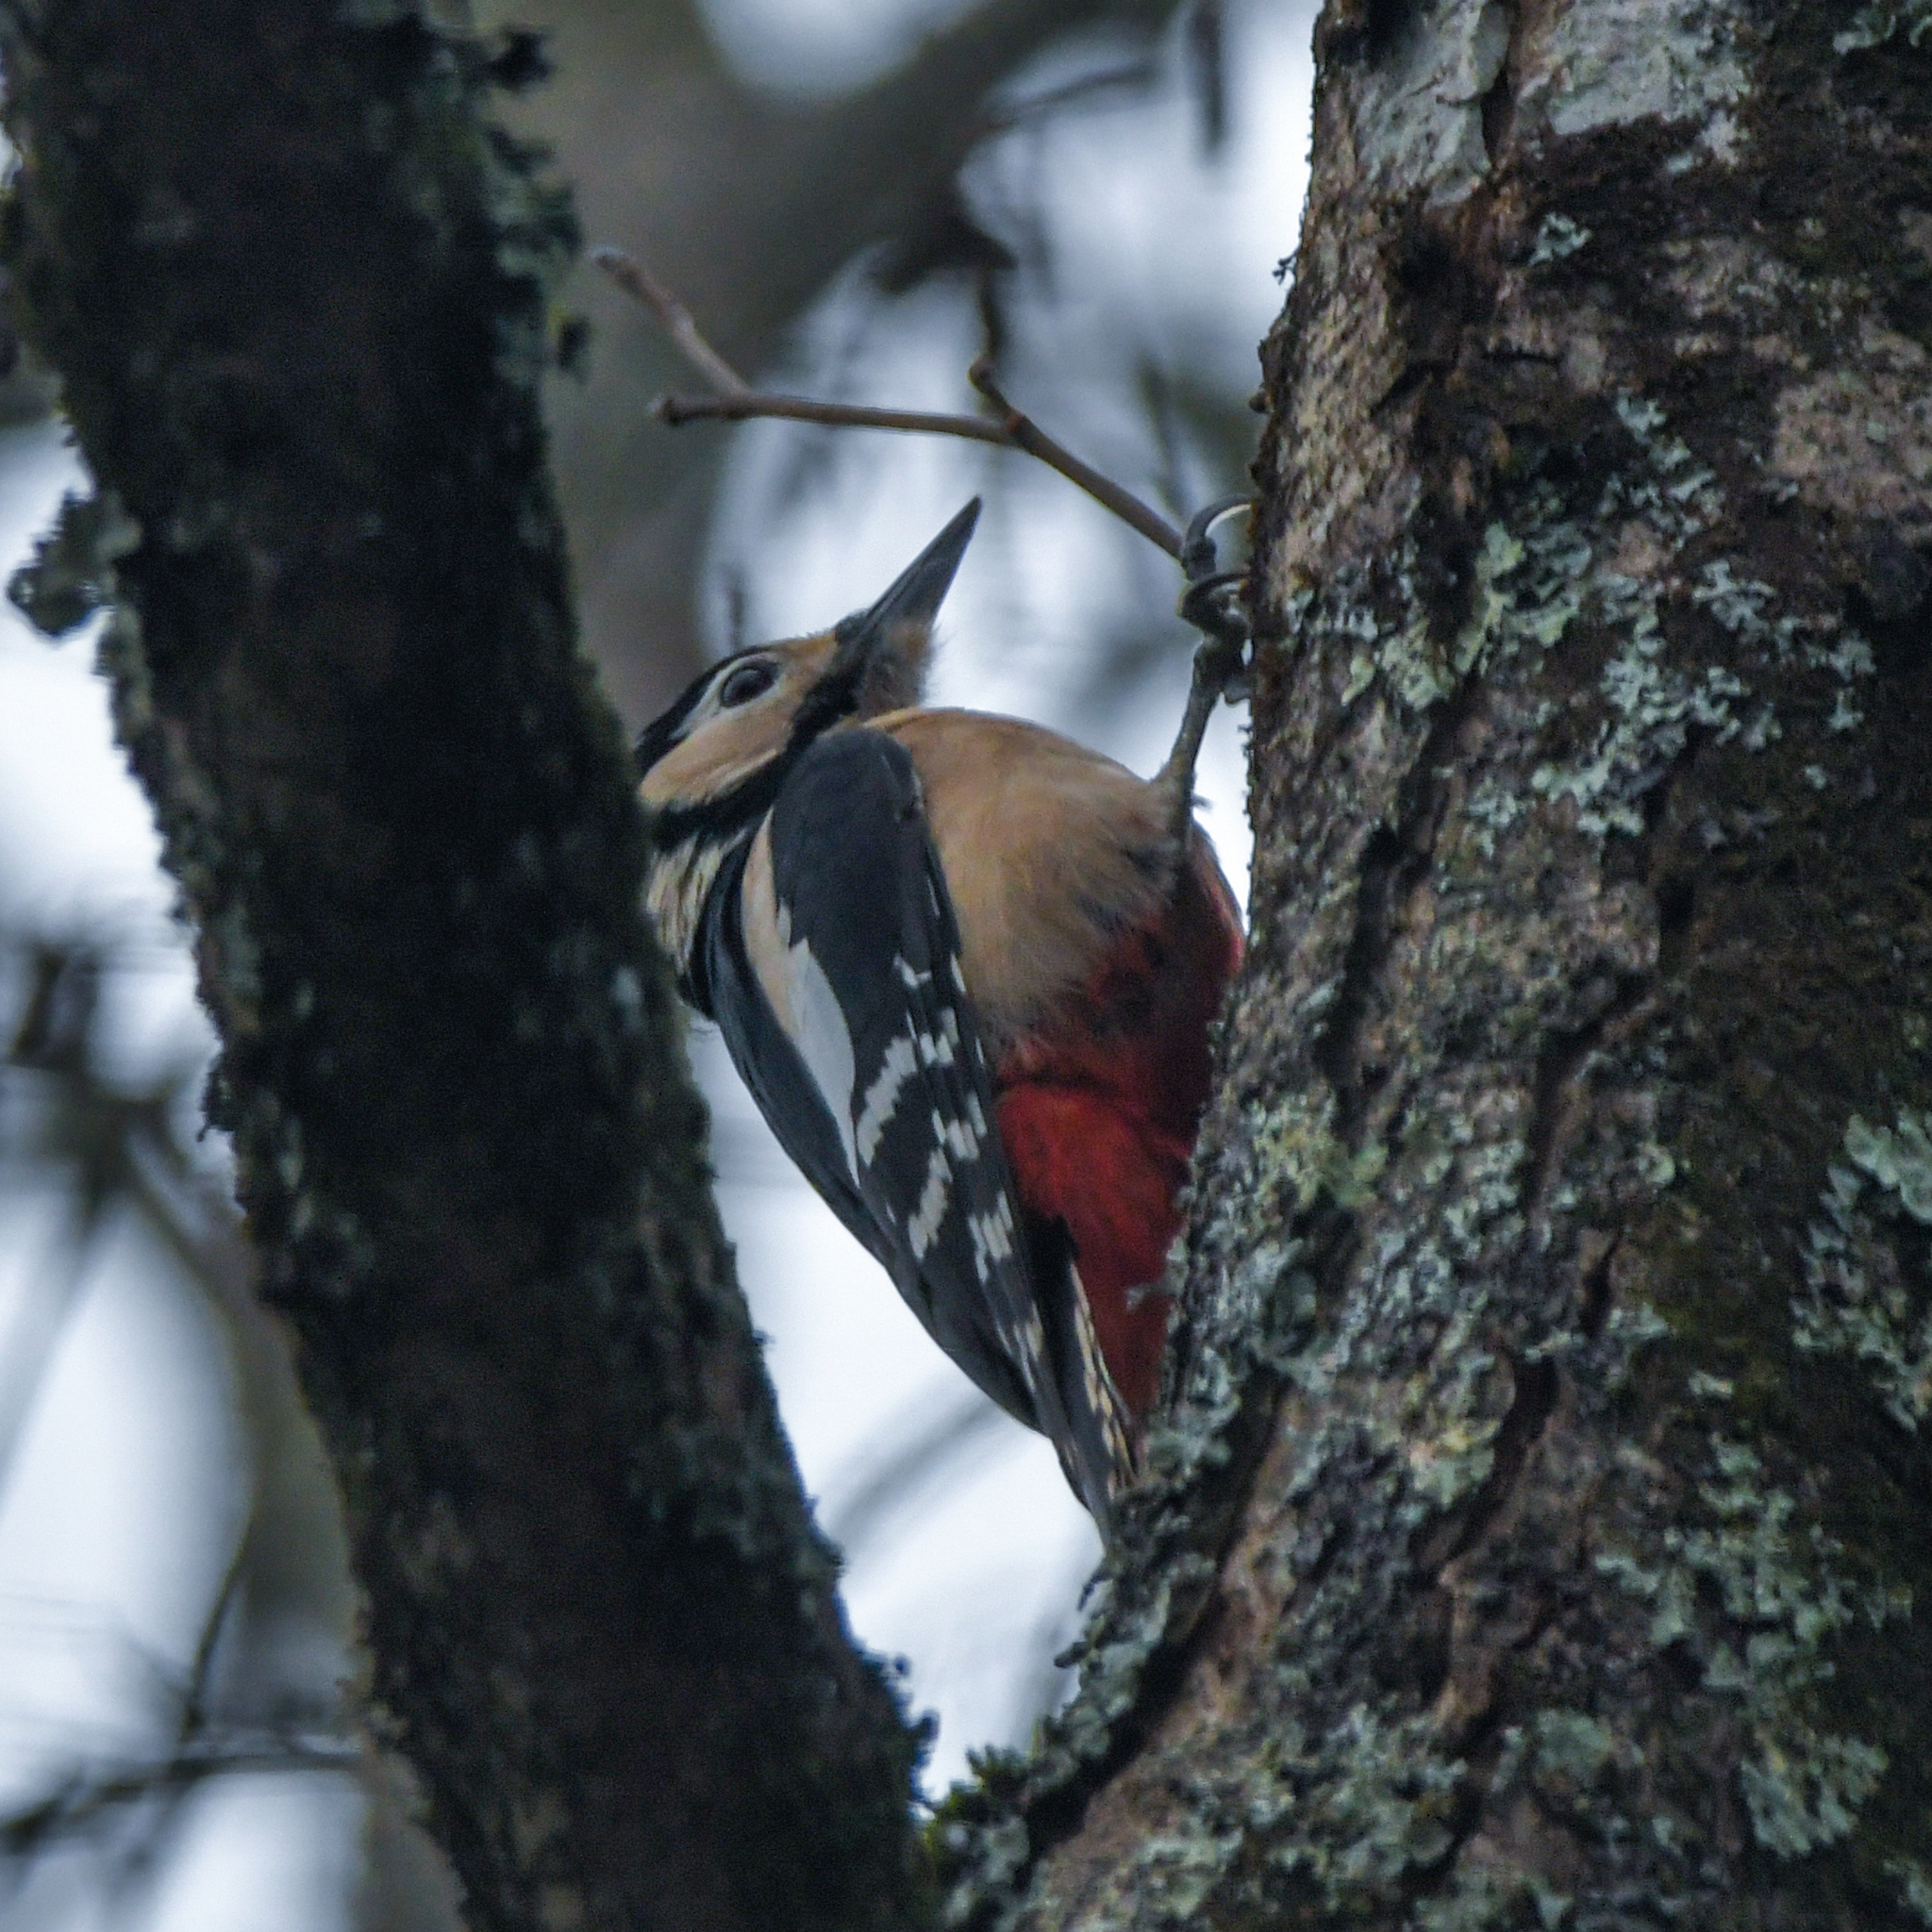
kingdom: Animalia
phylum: Chordata
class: Aves
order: Piciformes
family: Picidae
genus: Dendrocopos
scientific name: Dendrocopos major
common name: Great spotted woodpecker
